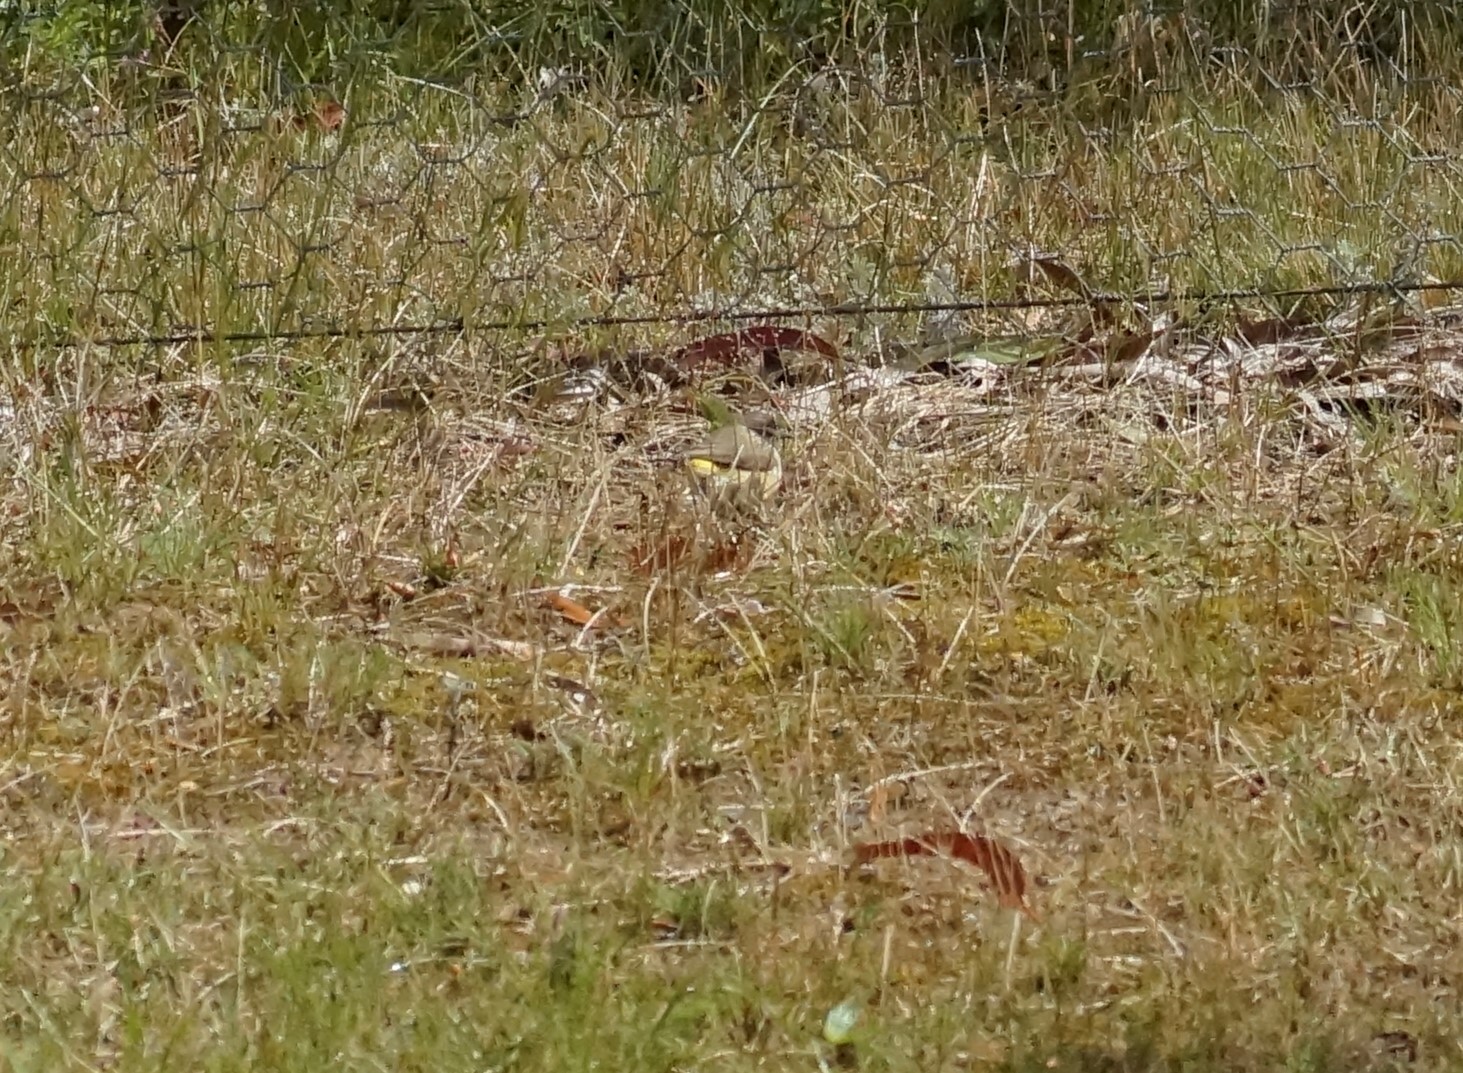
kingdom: Animalia
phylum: Chordata
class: Aves
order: Passeriformes
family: Acanthizidae
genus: Acanthiza
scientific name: Acanthiza chrysorrhoa
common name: Yellow-rumped thornbill
